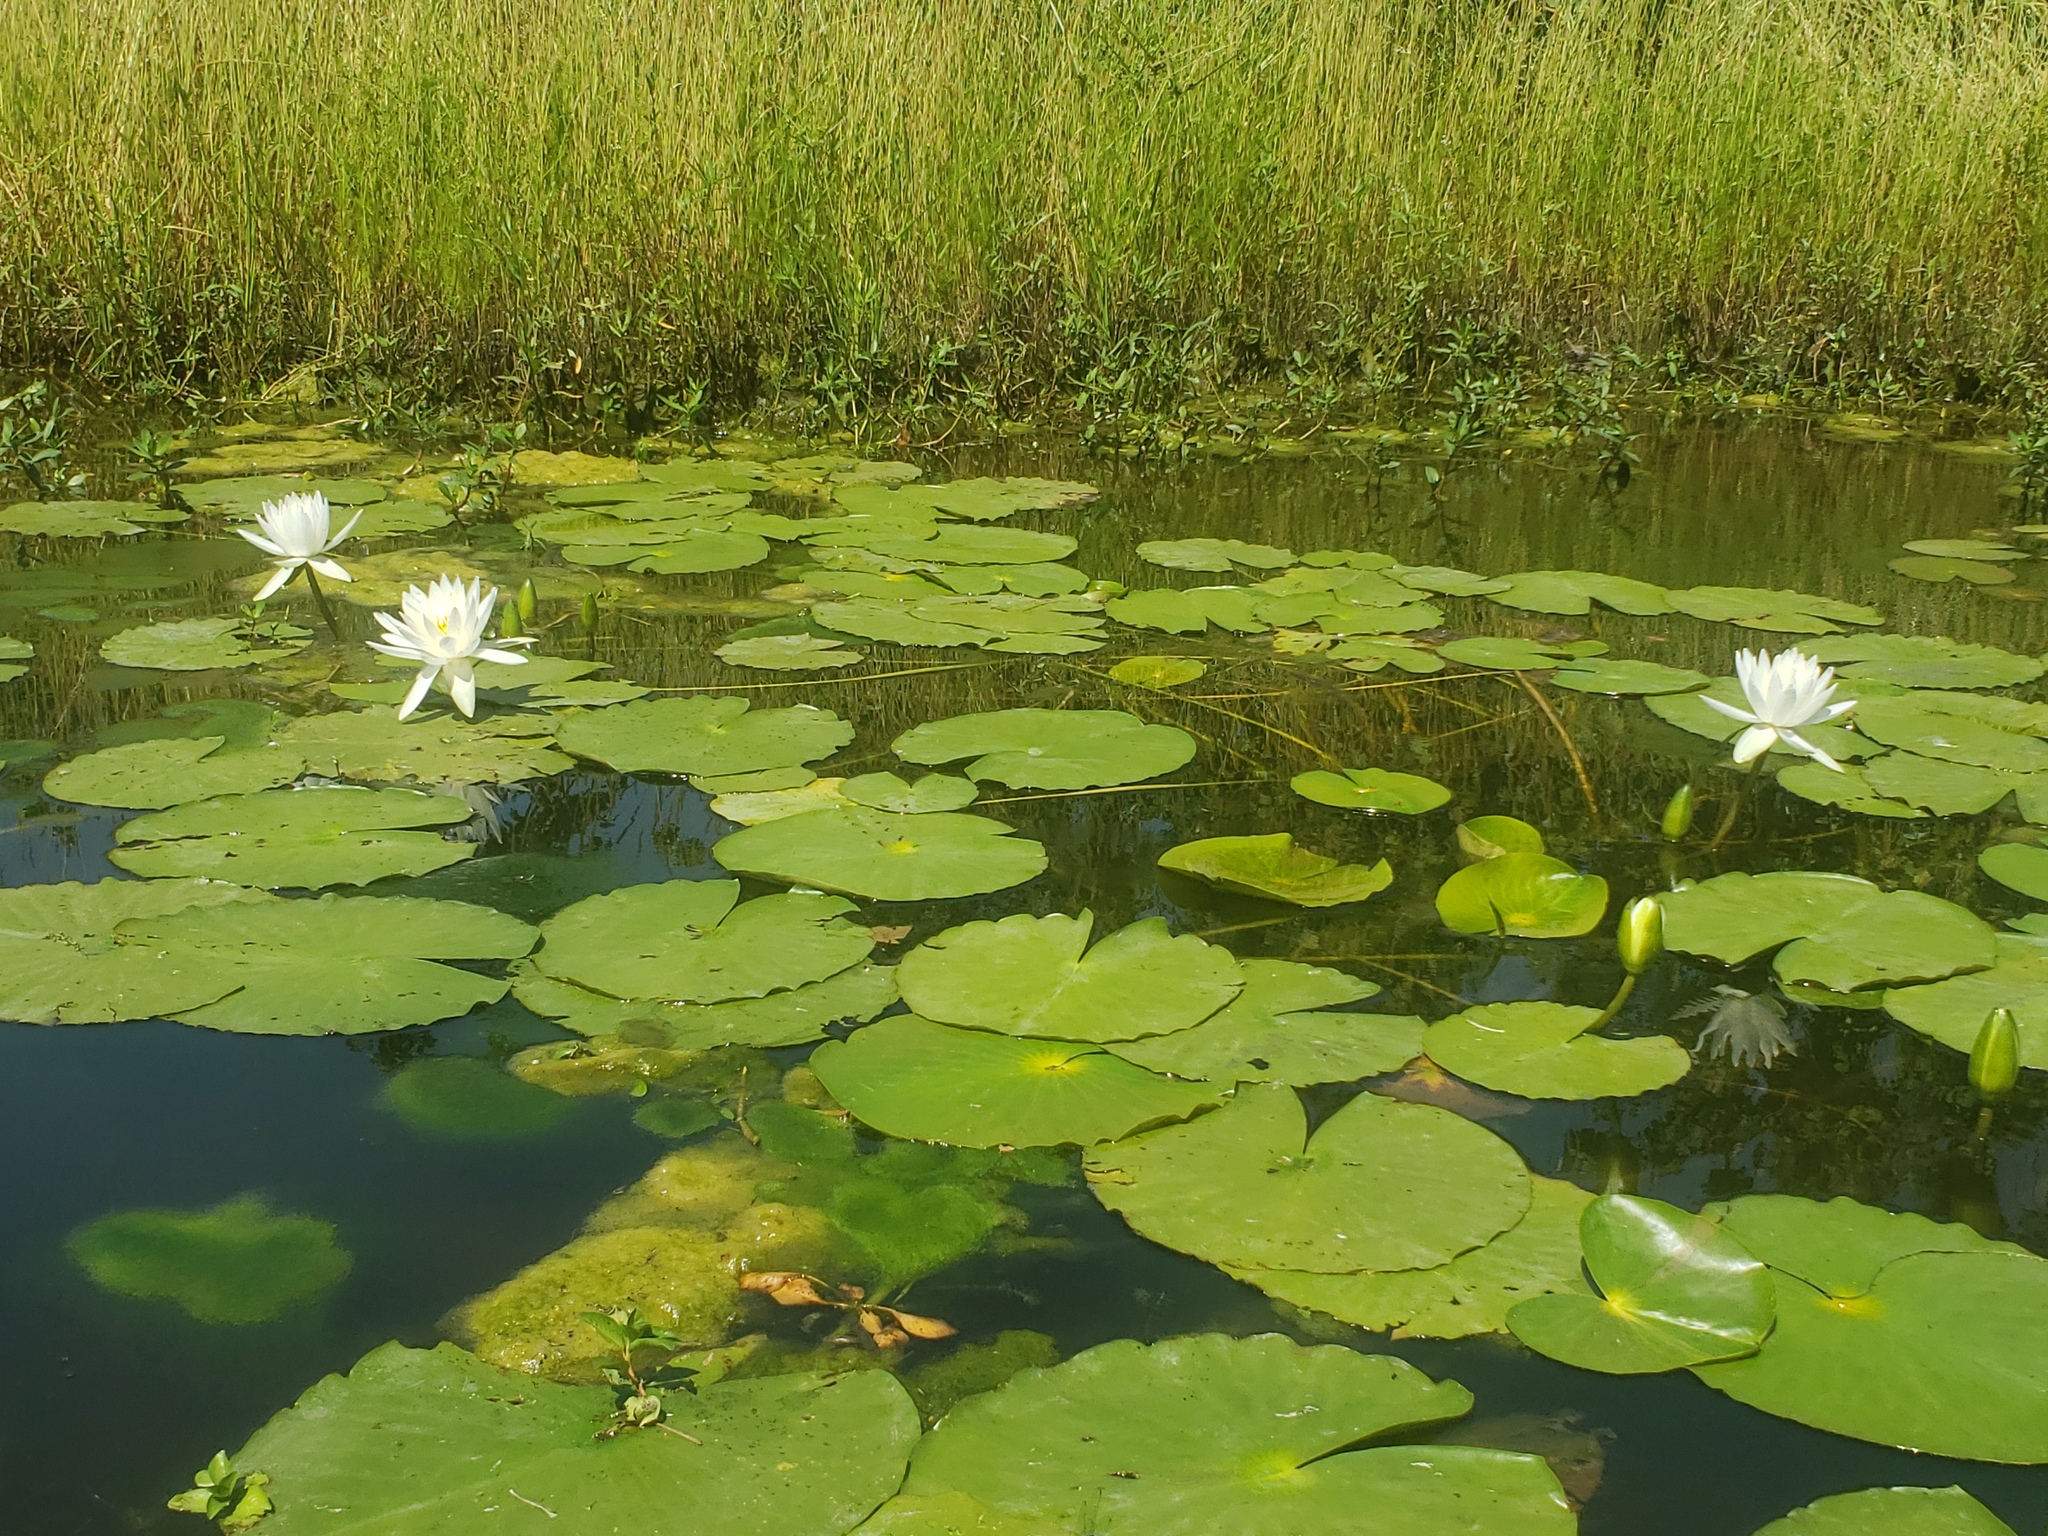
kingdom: Plantae
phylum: Tracheophyta
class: Magnoliopsida
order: Nymphaeales
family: Nymphaeaceae
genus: Nymphaea
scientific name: Nymphaea odorata
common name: Fragrant water-lily
